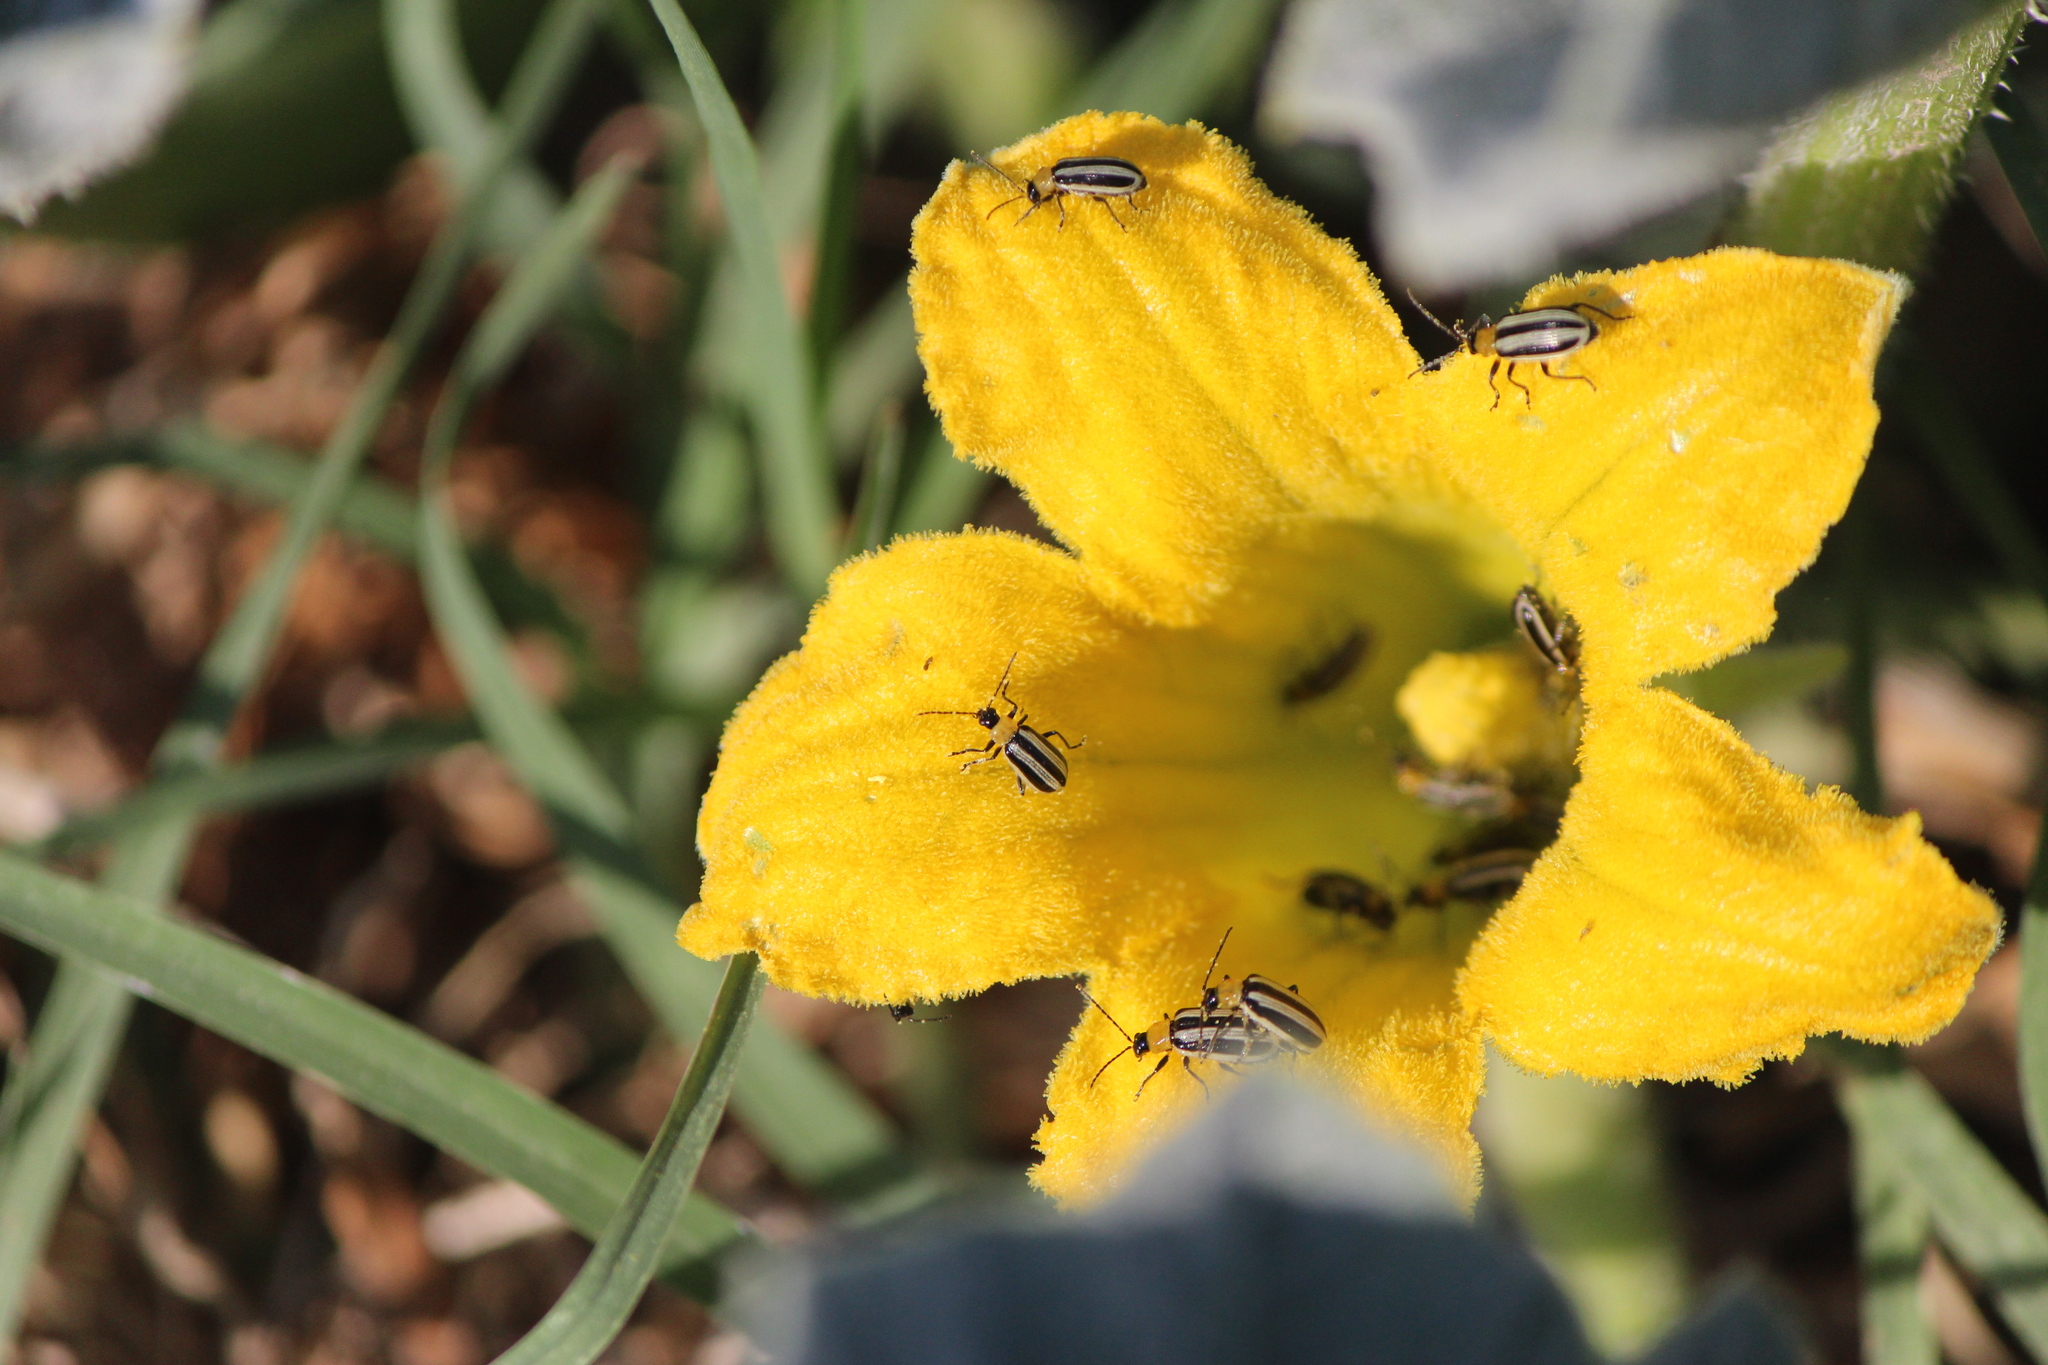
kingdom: Plantae
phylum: Tracheophyta
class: Magnoliopsida
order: Cucurbitales
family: Cucurbitaceae
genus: Cucurbita
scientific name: Cucurbita foetidissima
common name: Buffalo gourd
